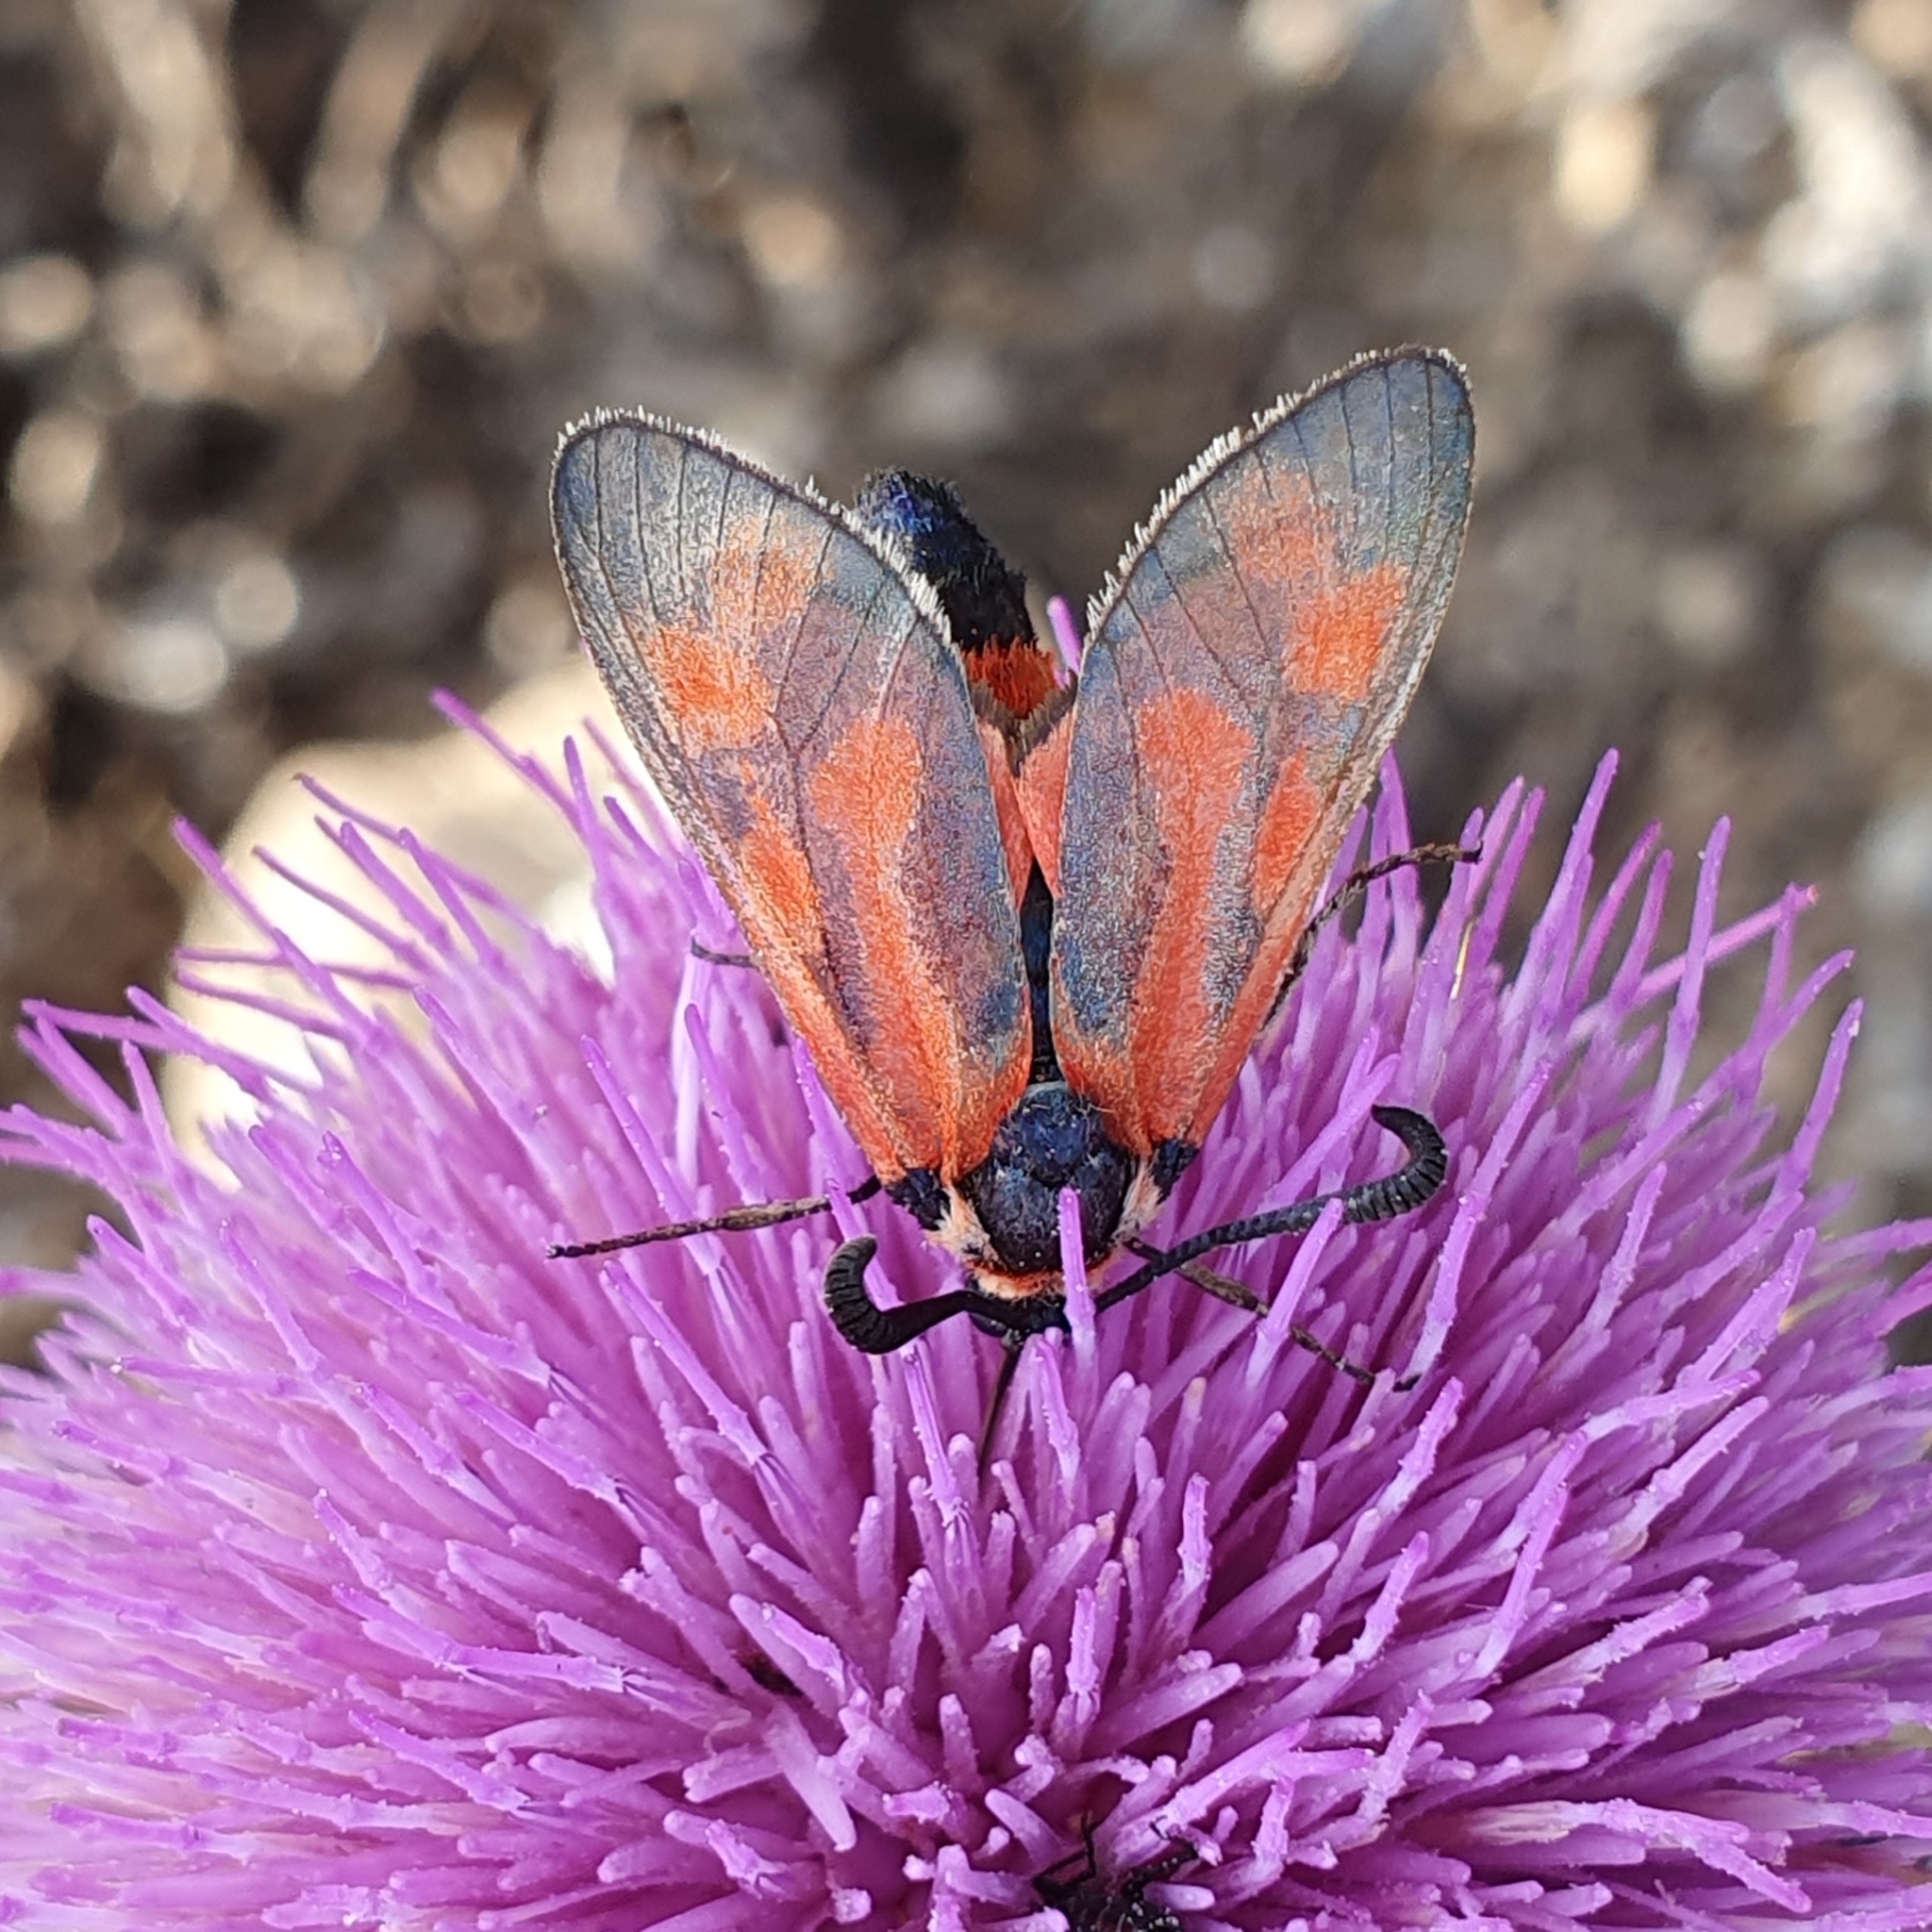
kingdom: Animalia
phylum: Arthropoda
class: Insecta
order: Lepidoptera
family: Zygaenidae
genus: Zygaena
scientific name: Zygaena loyselis
